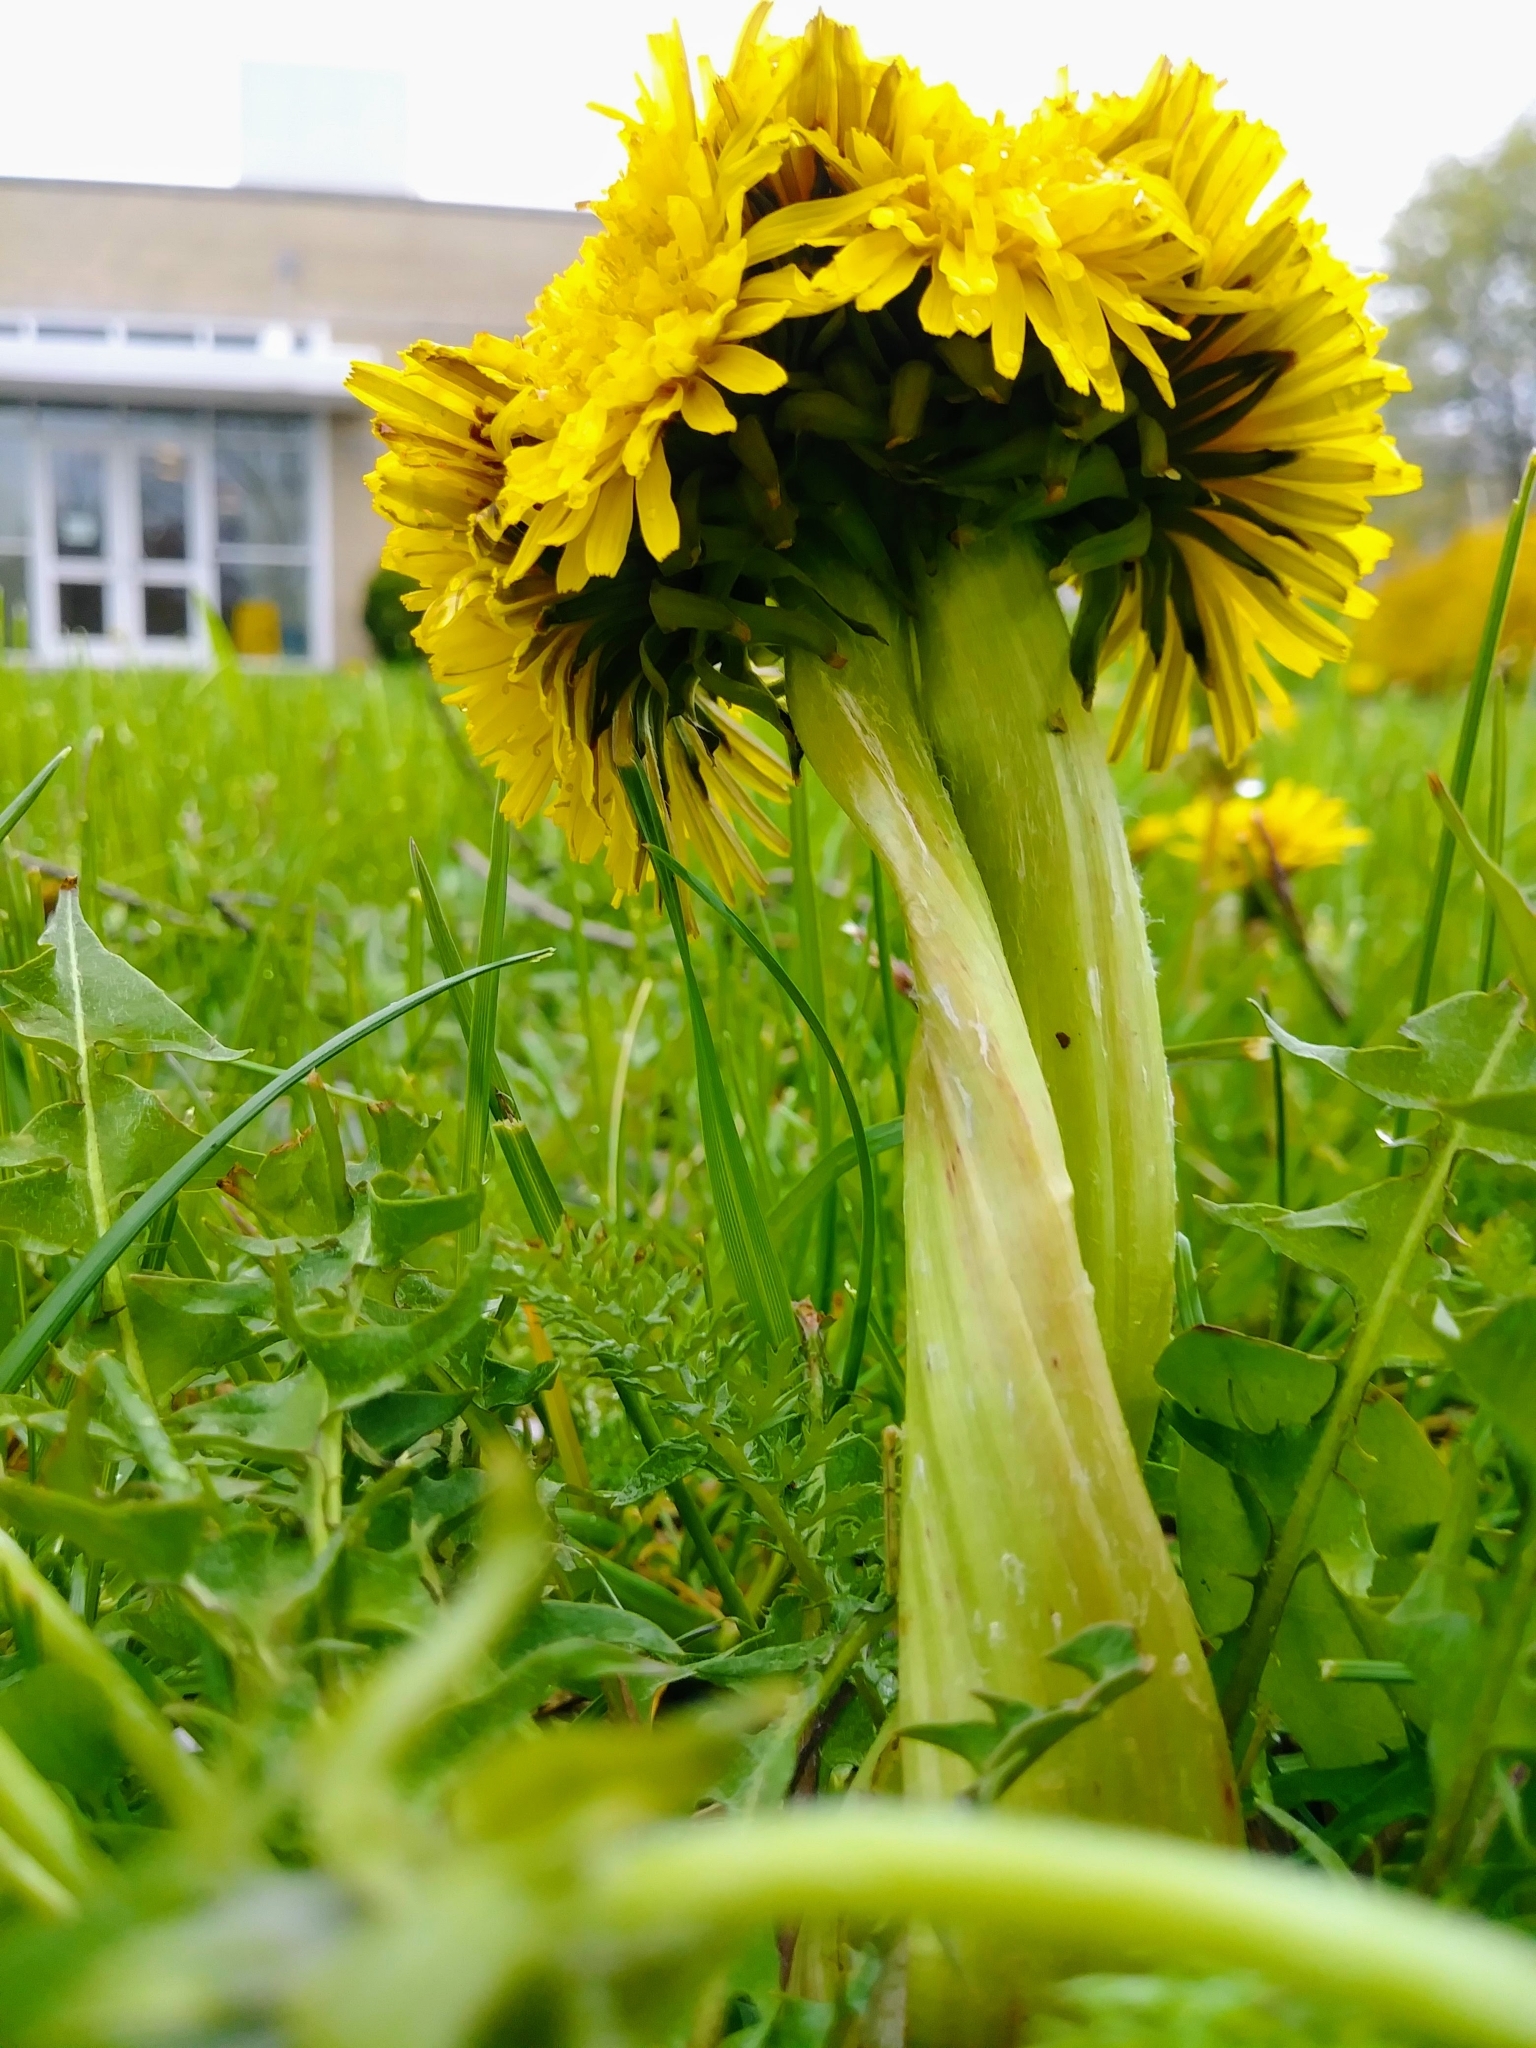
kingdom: Plantae
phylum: Tracheophyta
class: Magnoliopsida
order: Asterales
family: Asteraceae
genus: Taraxacum
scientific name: Taraxacum officinale
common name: Common dandelion
